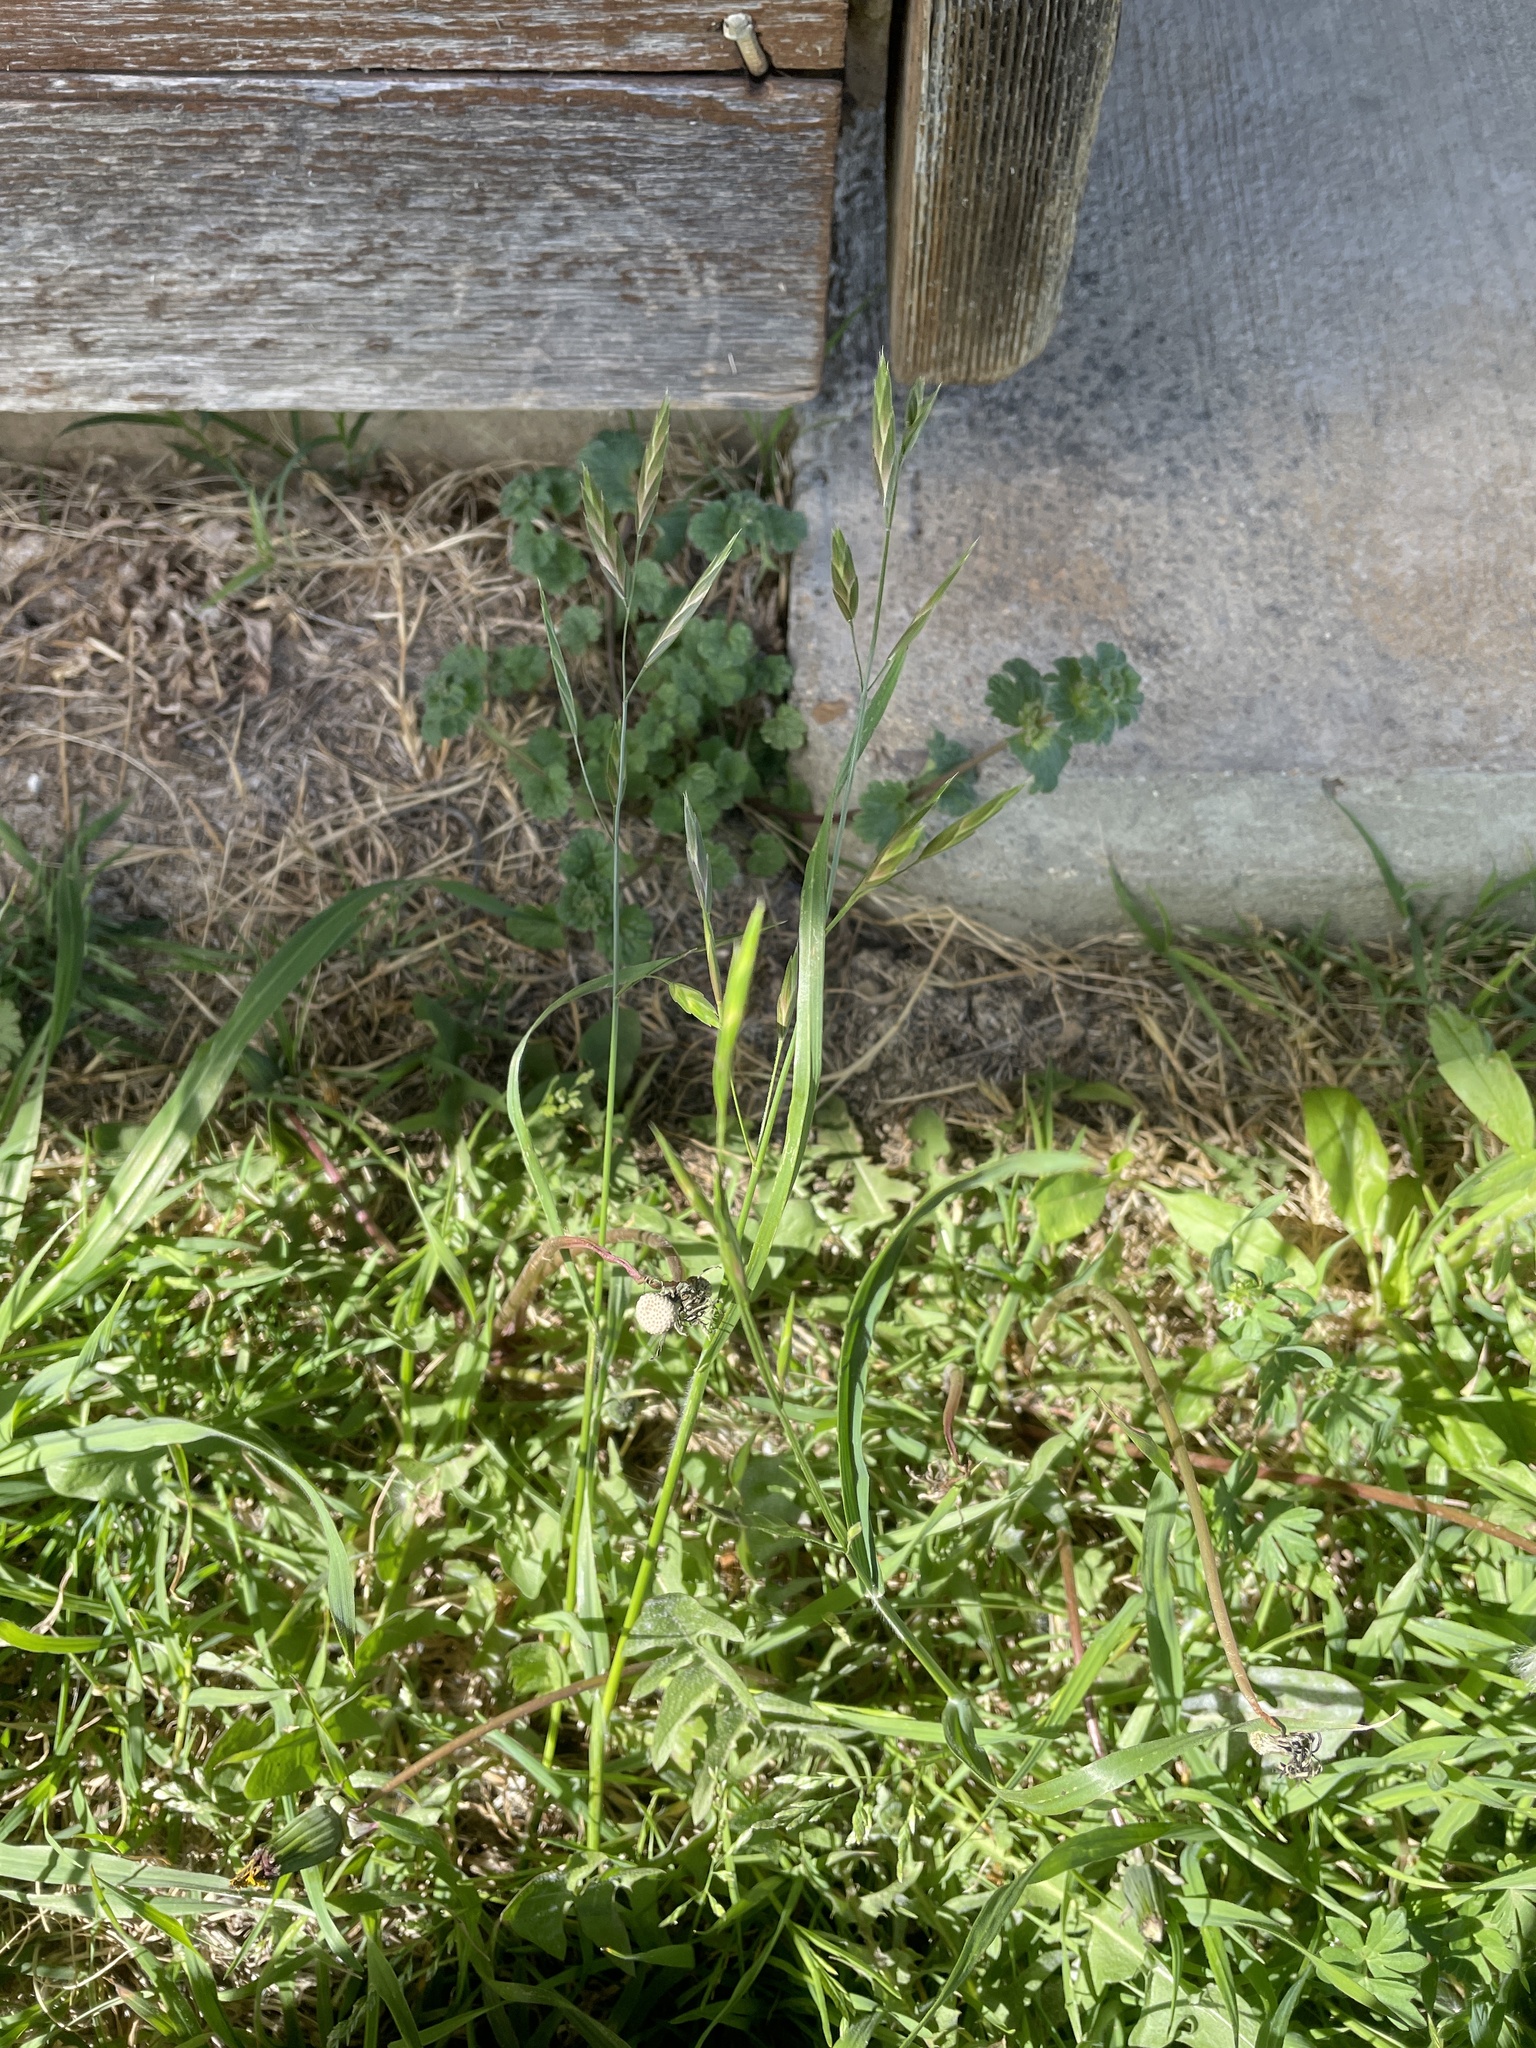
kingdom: Plantae
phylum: Tracheophyta
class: Liliopsida
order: Poales
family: Poaceae
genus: Bromus
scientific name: Bromus catharticus
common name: Rescuegrass
